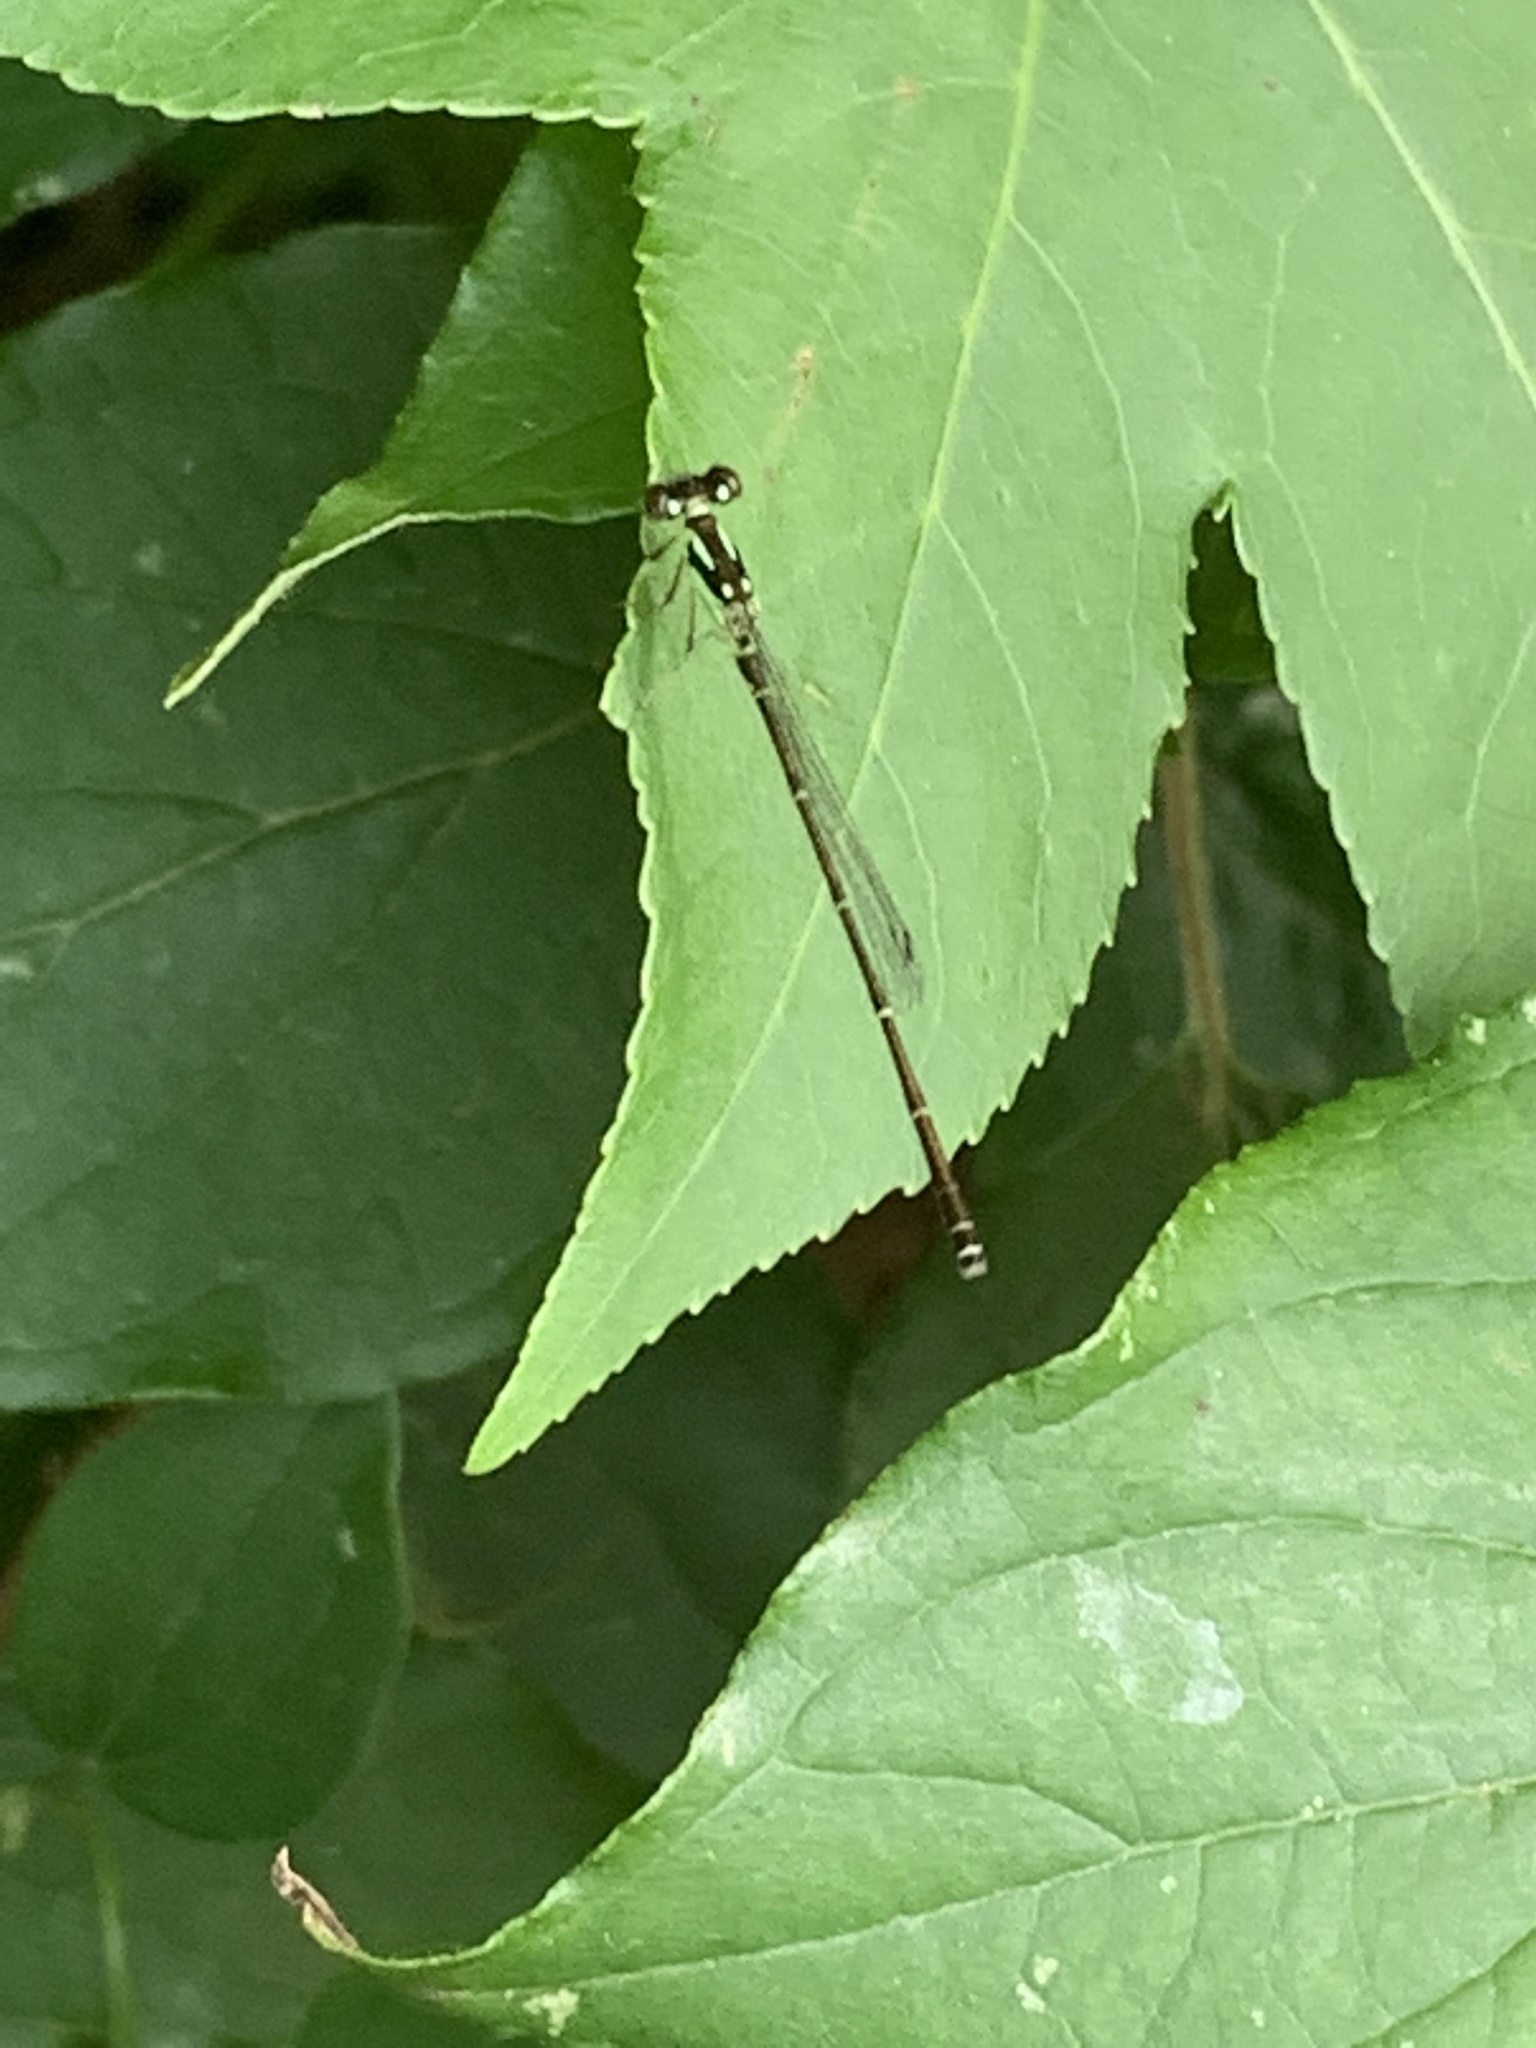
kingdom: Animalia
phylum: Arthropoda
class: Insecta
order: Odonata
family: Coenagrionidae
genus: Ischnura
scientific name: Ischnura posita
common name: Fragile forktail
